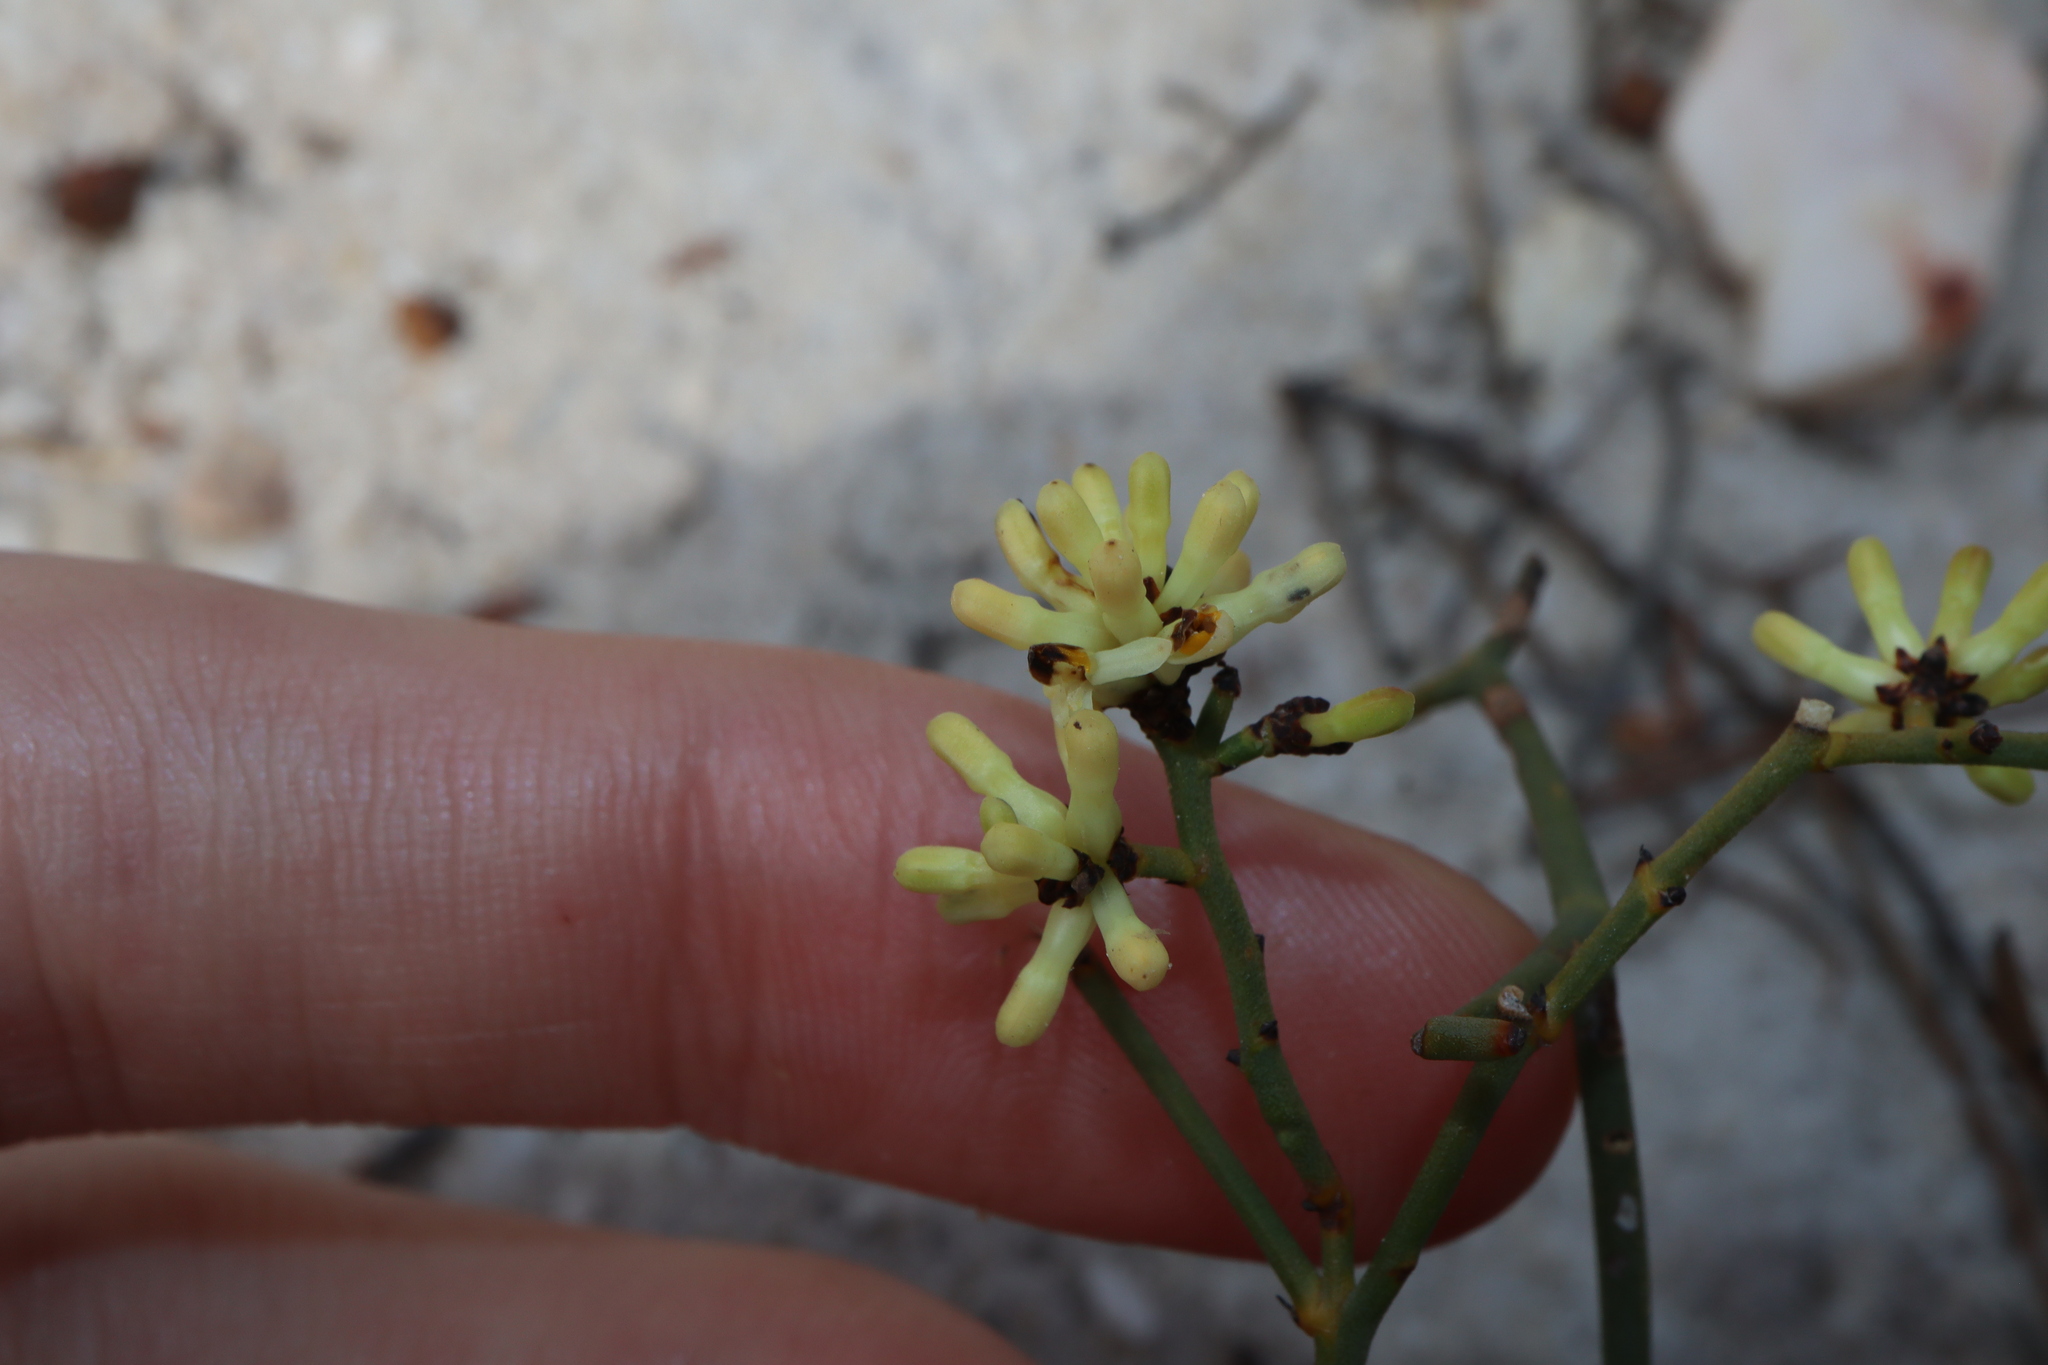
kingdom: Plantae
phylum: Tracheophyta
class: Magnoliopsida
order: Proteales
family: Proteaceae
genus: Stirlingia
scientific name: Stirlingia anethifolia
